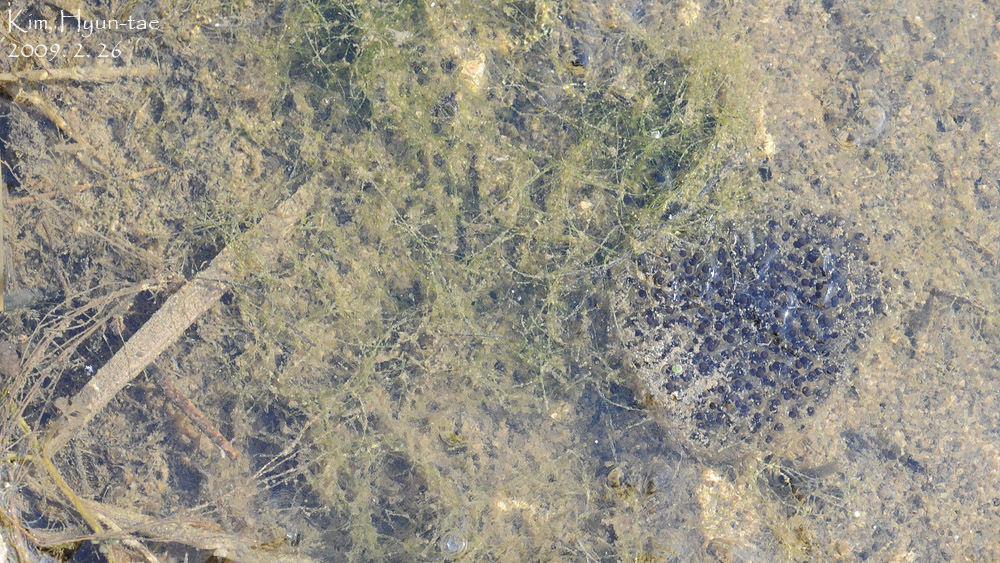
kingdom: Animalia
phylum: Chordata
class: Amphibia
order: Anura
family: Ranidae
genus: Rana
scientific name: Rana coreana
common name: Korean brown frog
